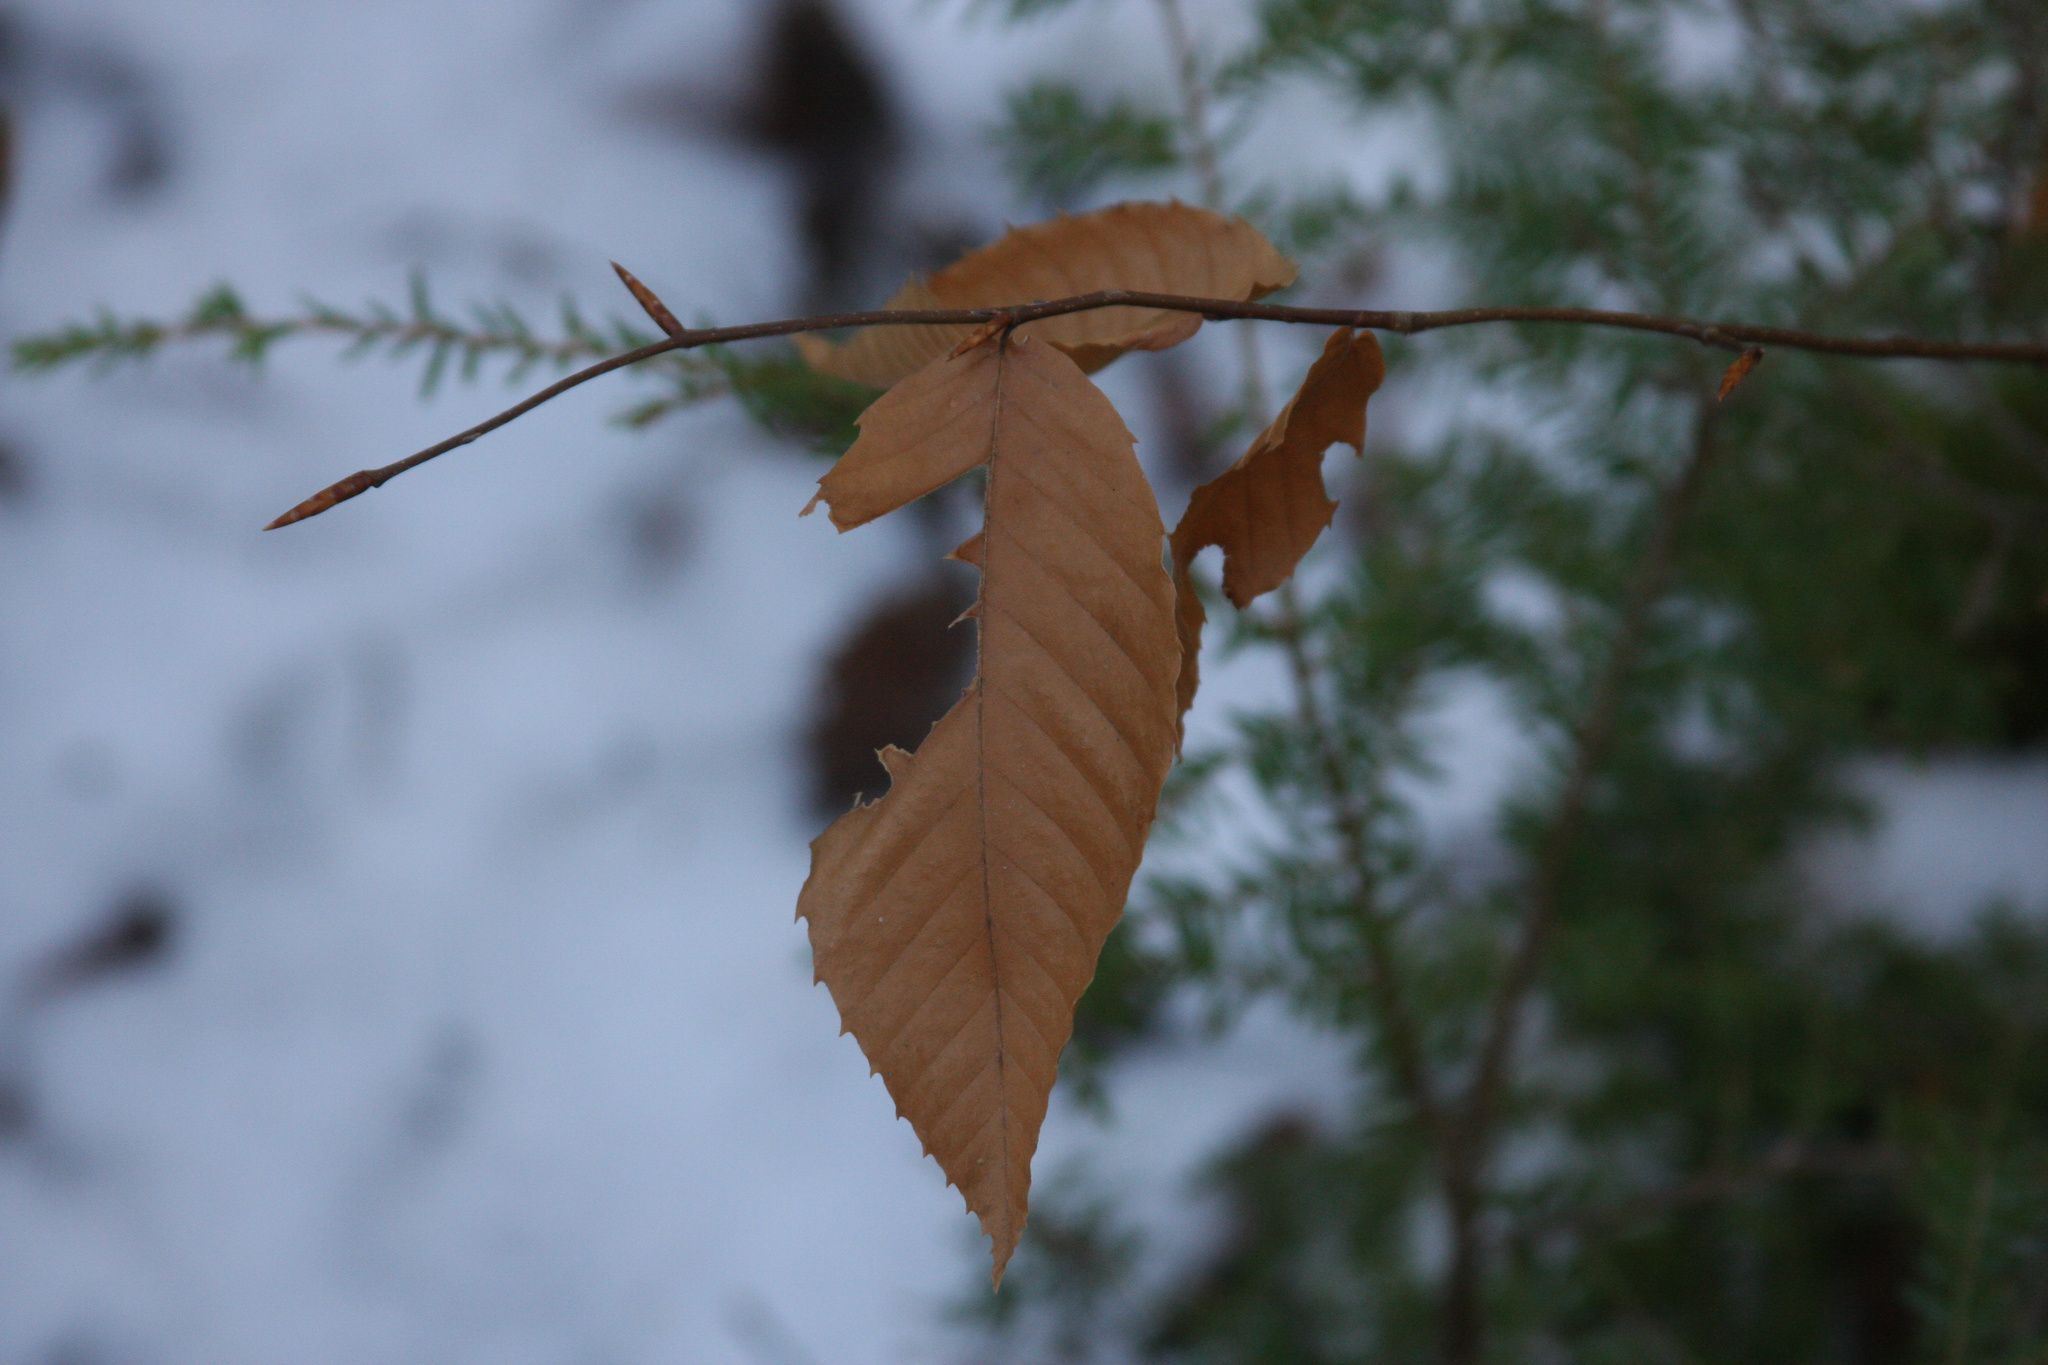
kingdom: Plantae
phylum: Tracheophyta
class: Magnoliopsida
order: Fagales
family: Fagaceae
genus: Fagus
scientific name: Fagus grandifolia
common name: American beech
